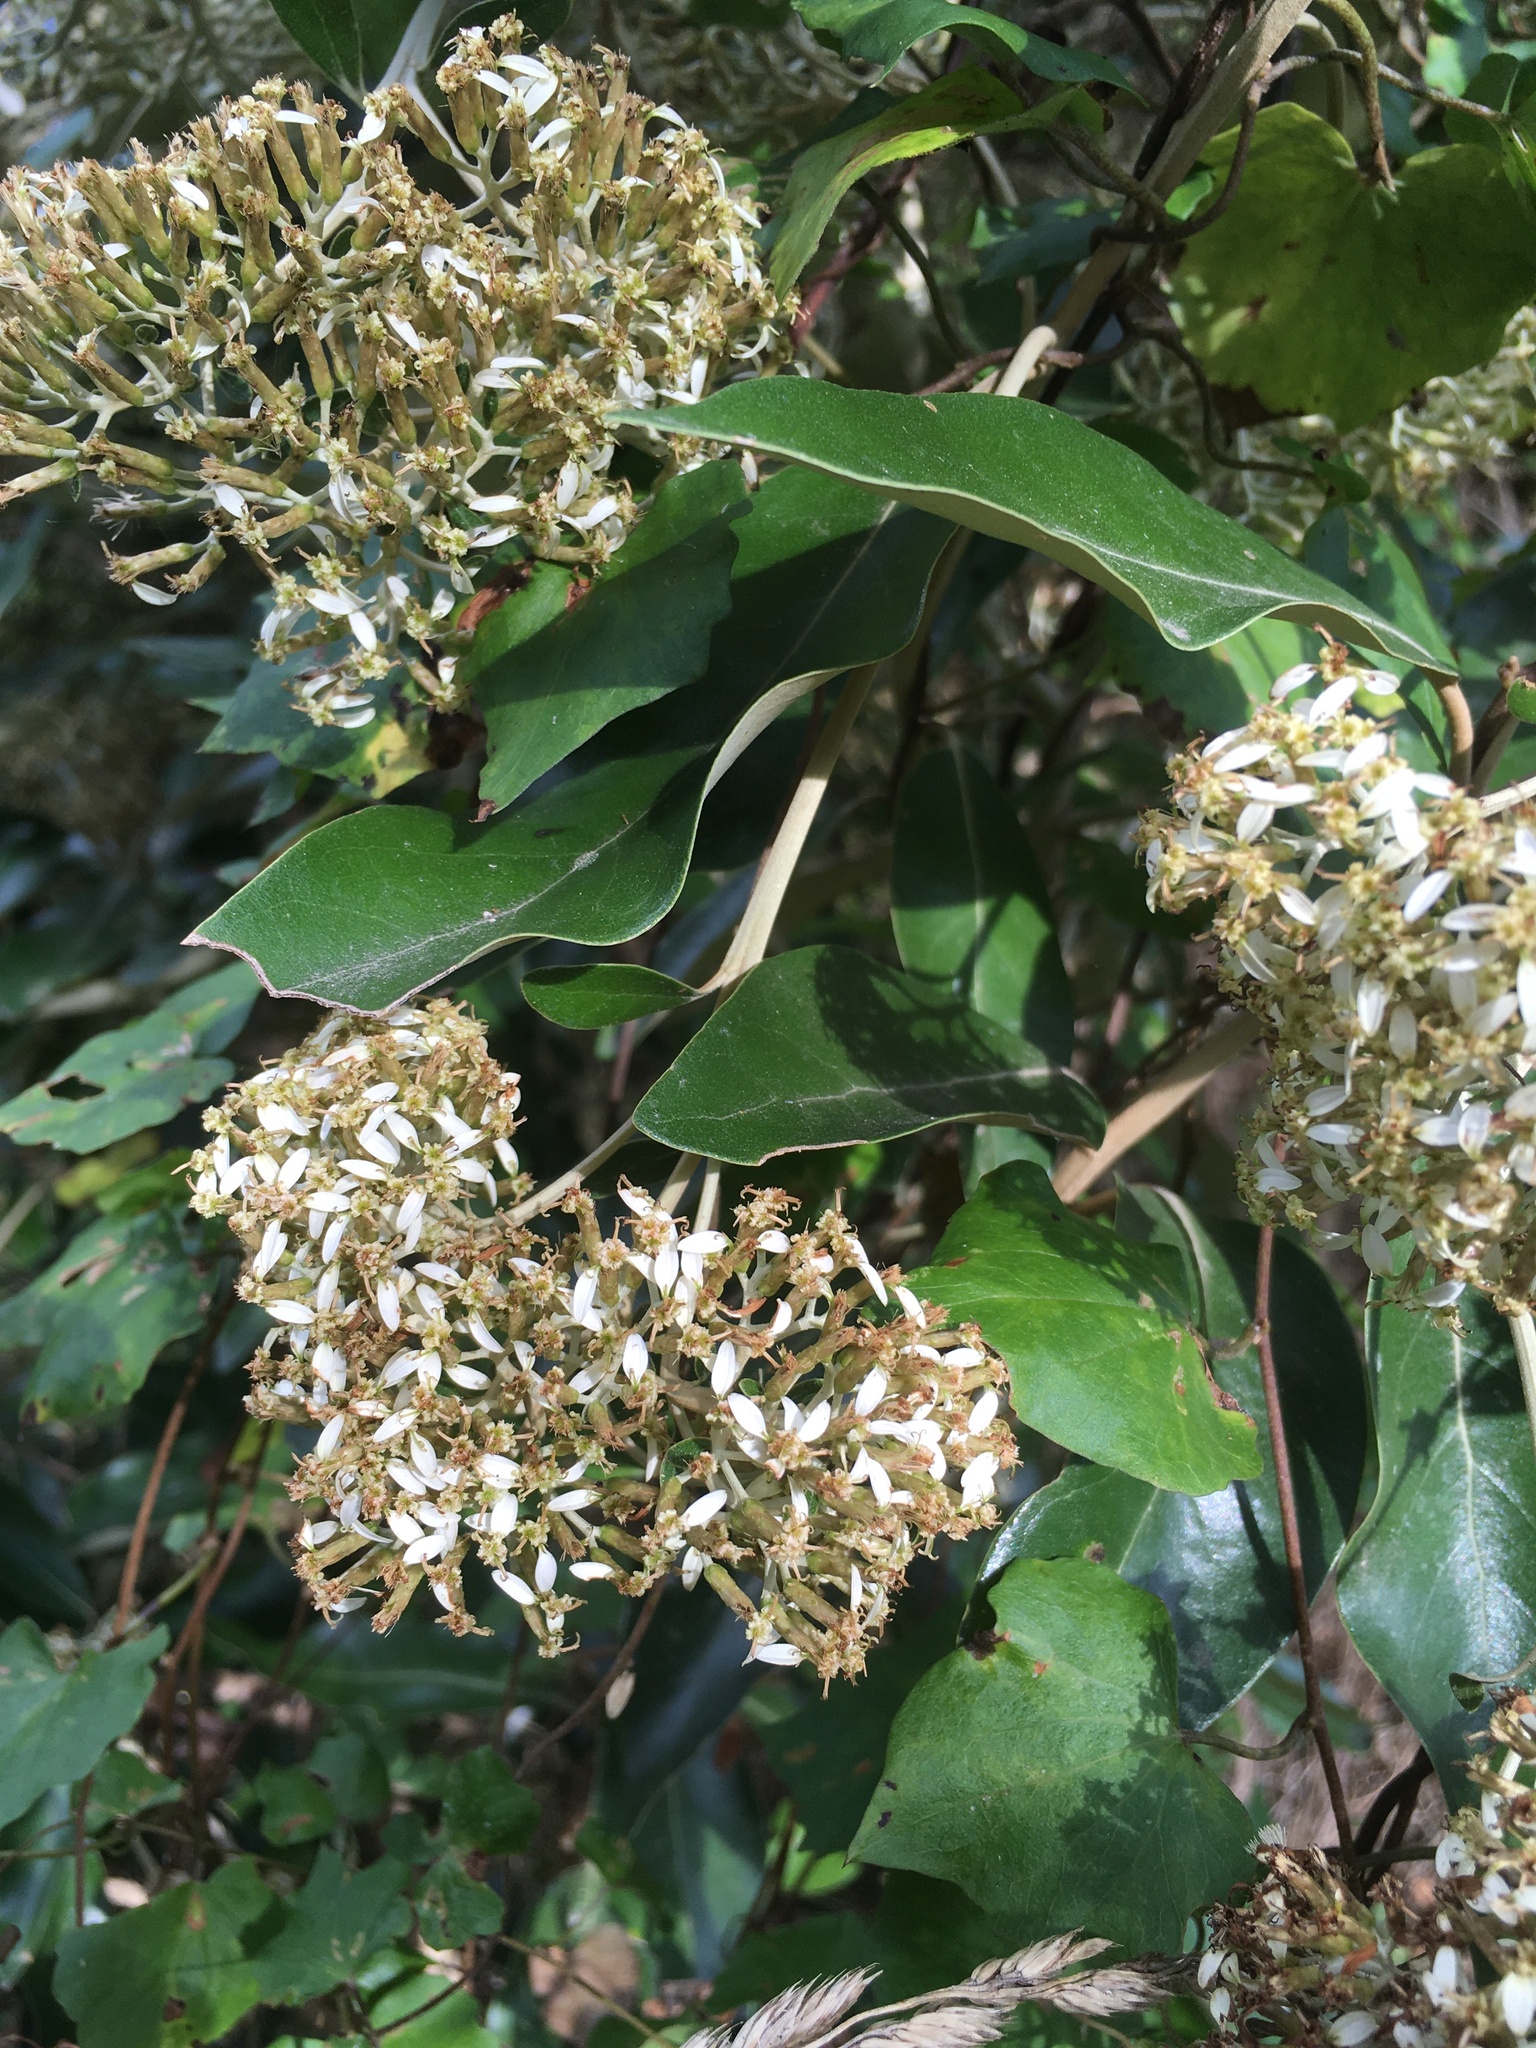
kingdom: Plantae
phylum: Tracheophyta
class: Magnoliopsida
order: Asterales
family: Asteraceae
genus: Olearia
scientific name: Olearia avicenniifolia
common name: Mangrove-leaf daisybush
